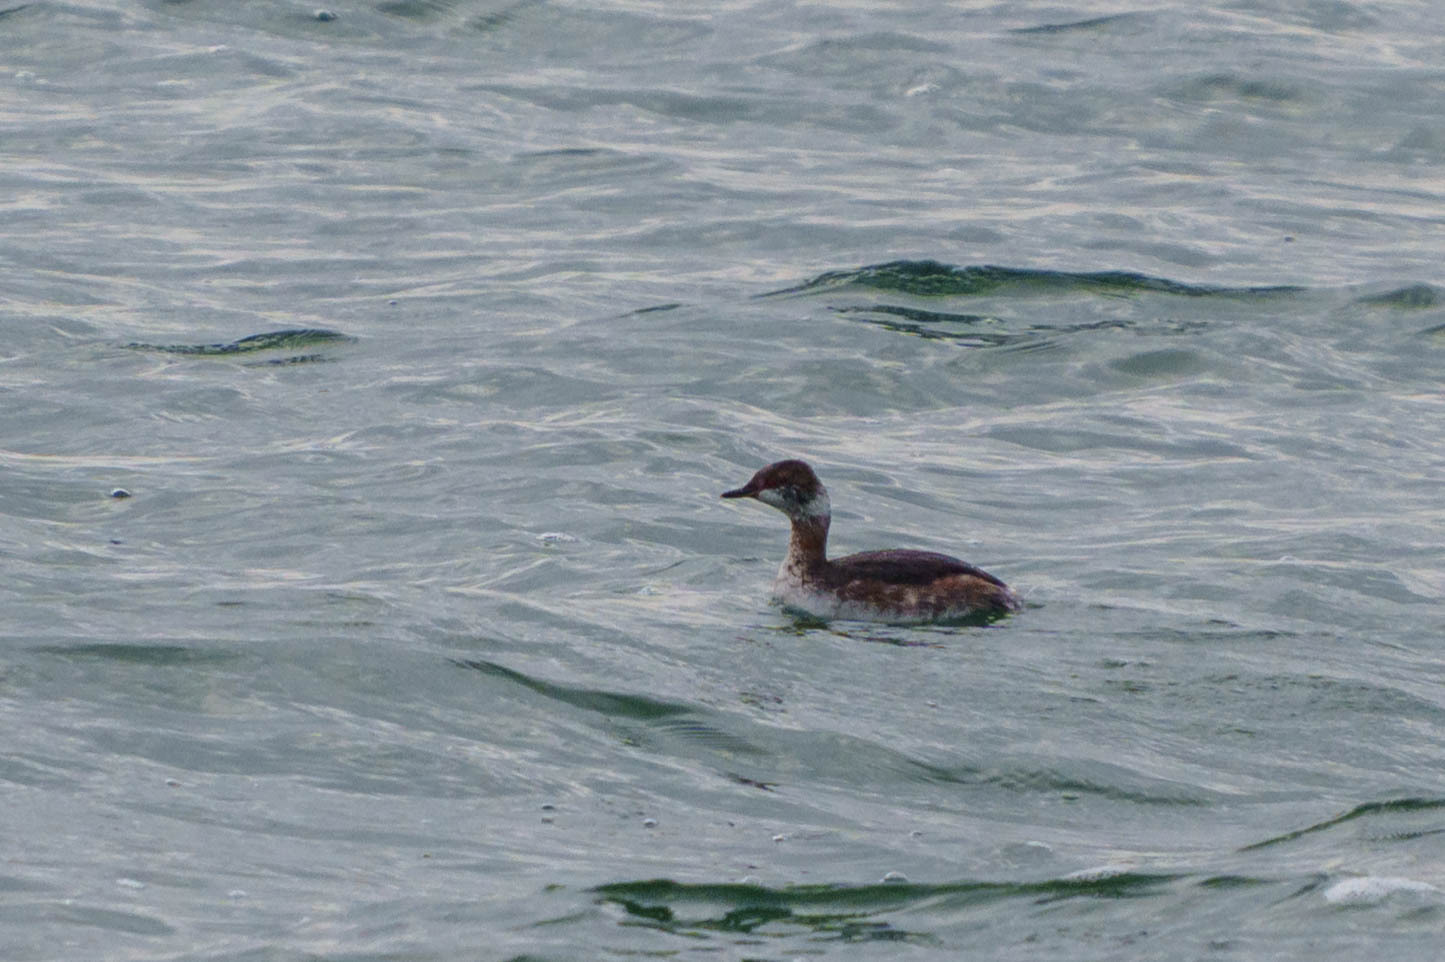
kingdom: Animalia
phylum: Chordata
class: Aves
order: Podicipediformes
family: Podicipedidae
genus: Podiceps
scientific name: Podiceps auritus
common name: Horned grebe
